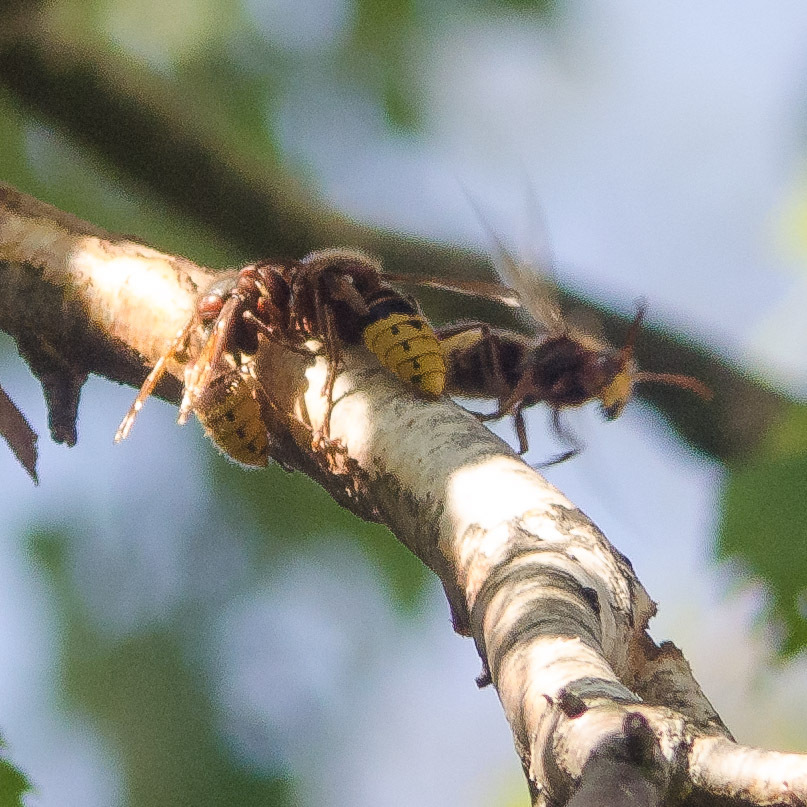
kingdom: Animalia
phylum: Arthropoda
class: Insecta
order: Hymenoptera
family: Vespidae
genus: Vespa
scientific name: Vespa crabro
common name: Hornet
